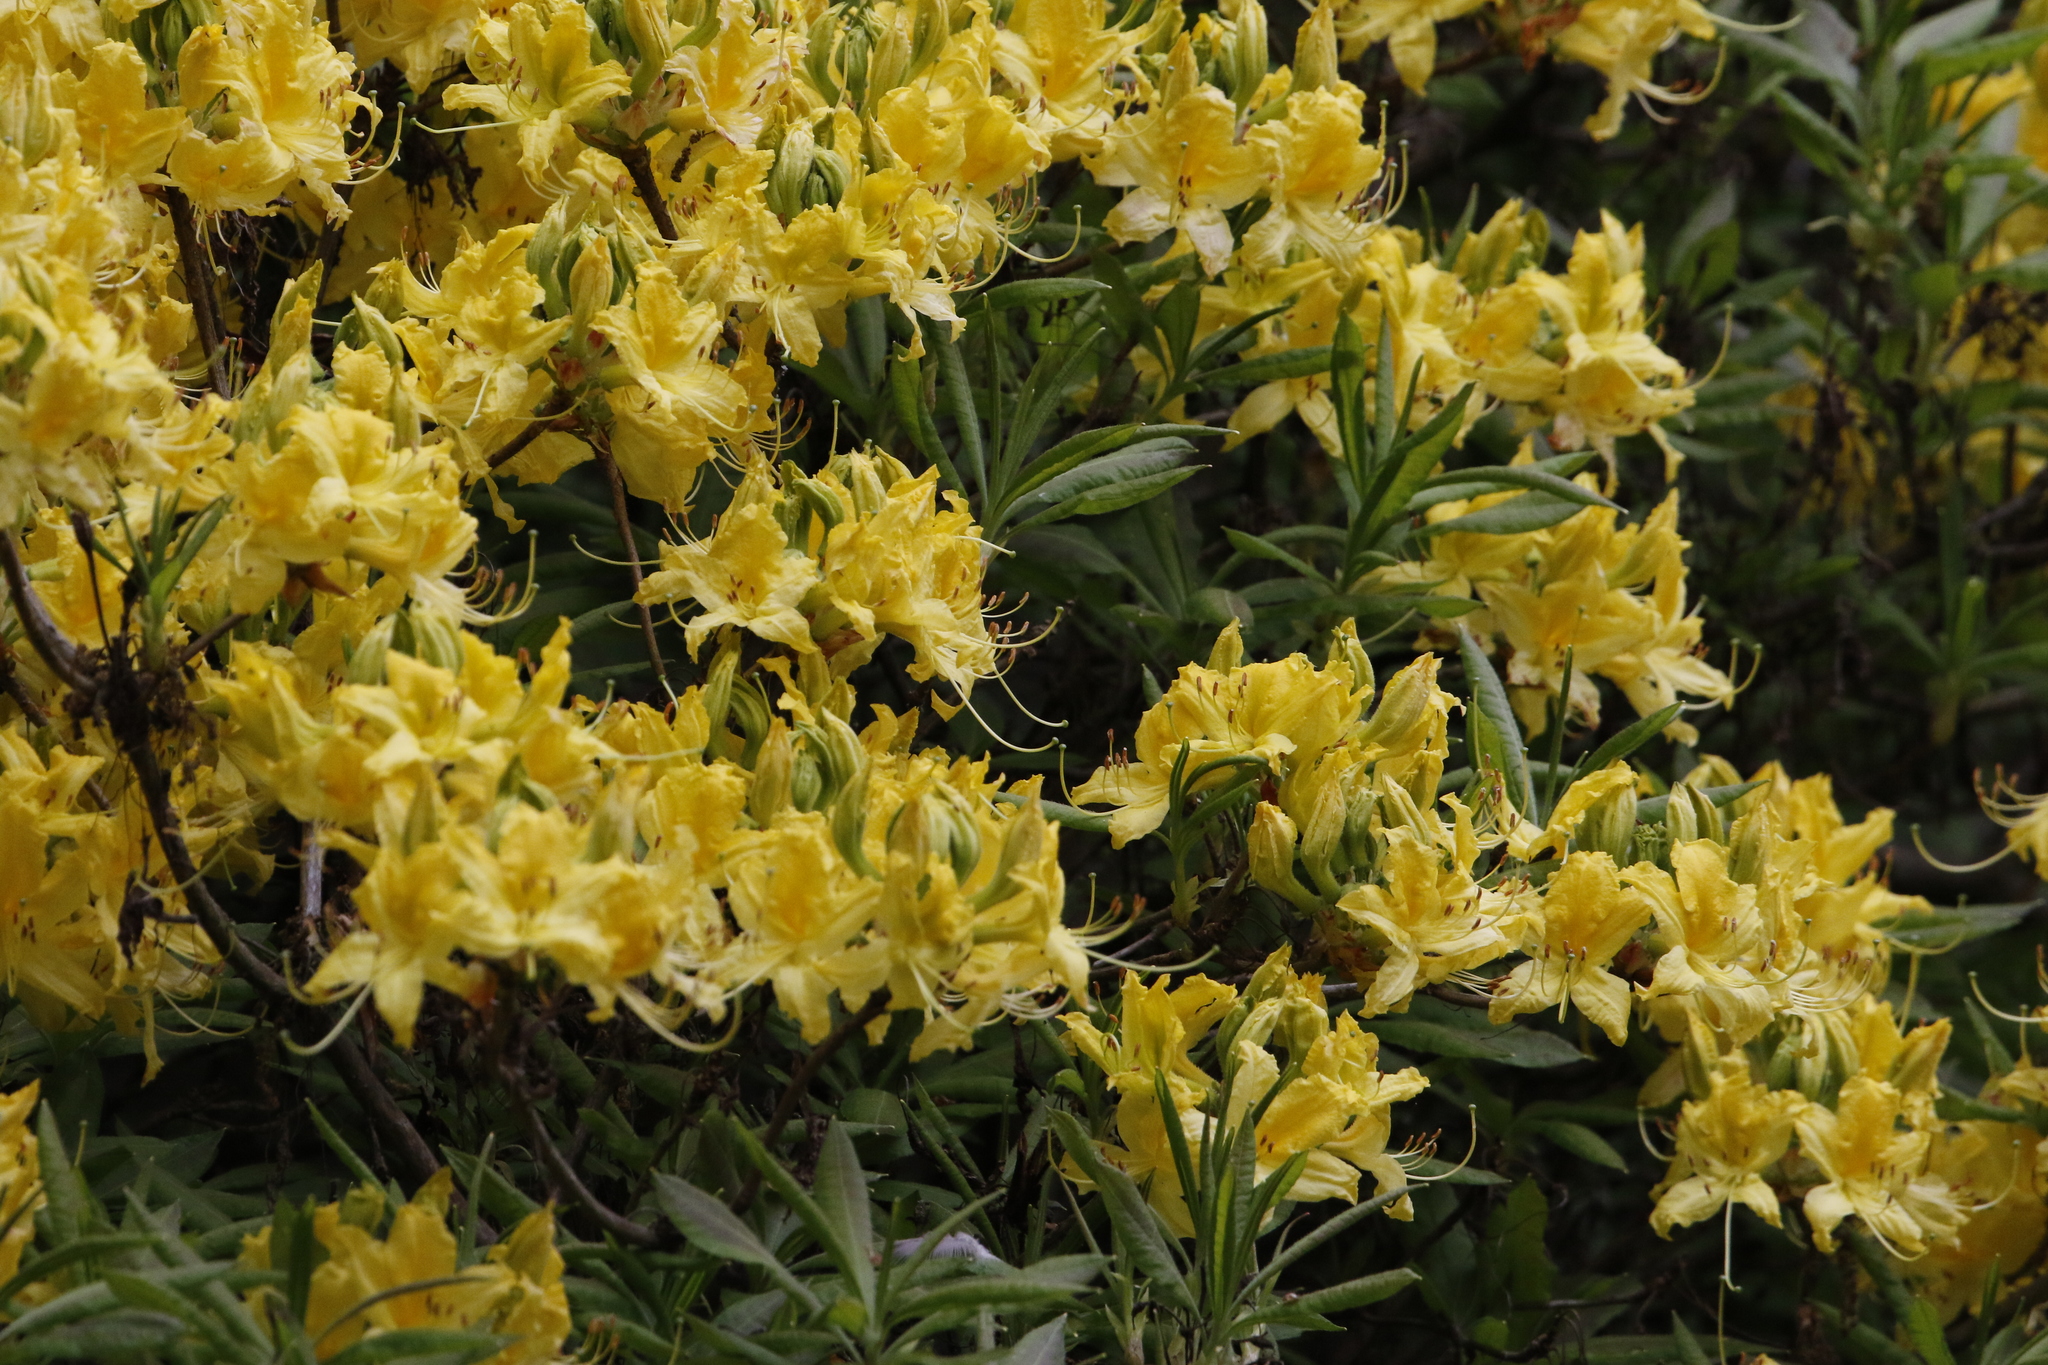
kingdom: Plantae
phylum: Tracheophyta
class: Magnoliopsida
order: Ericales
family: Ericaceae
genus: Rhododendron
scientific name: Rhododendron luteum
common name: Yellow azalea
